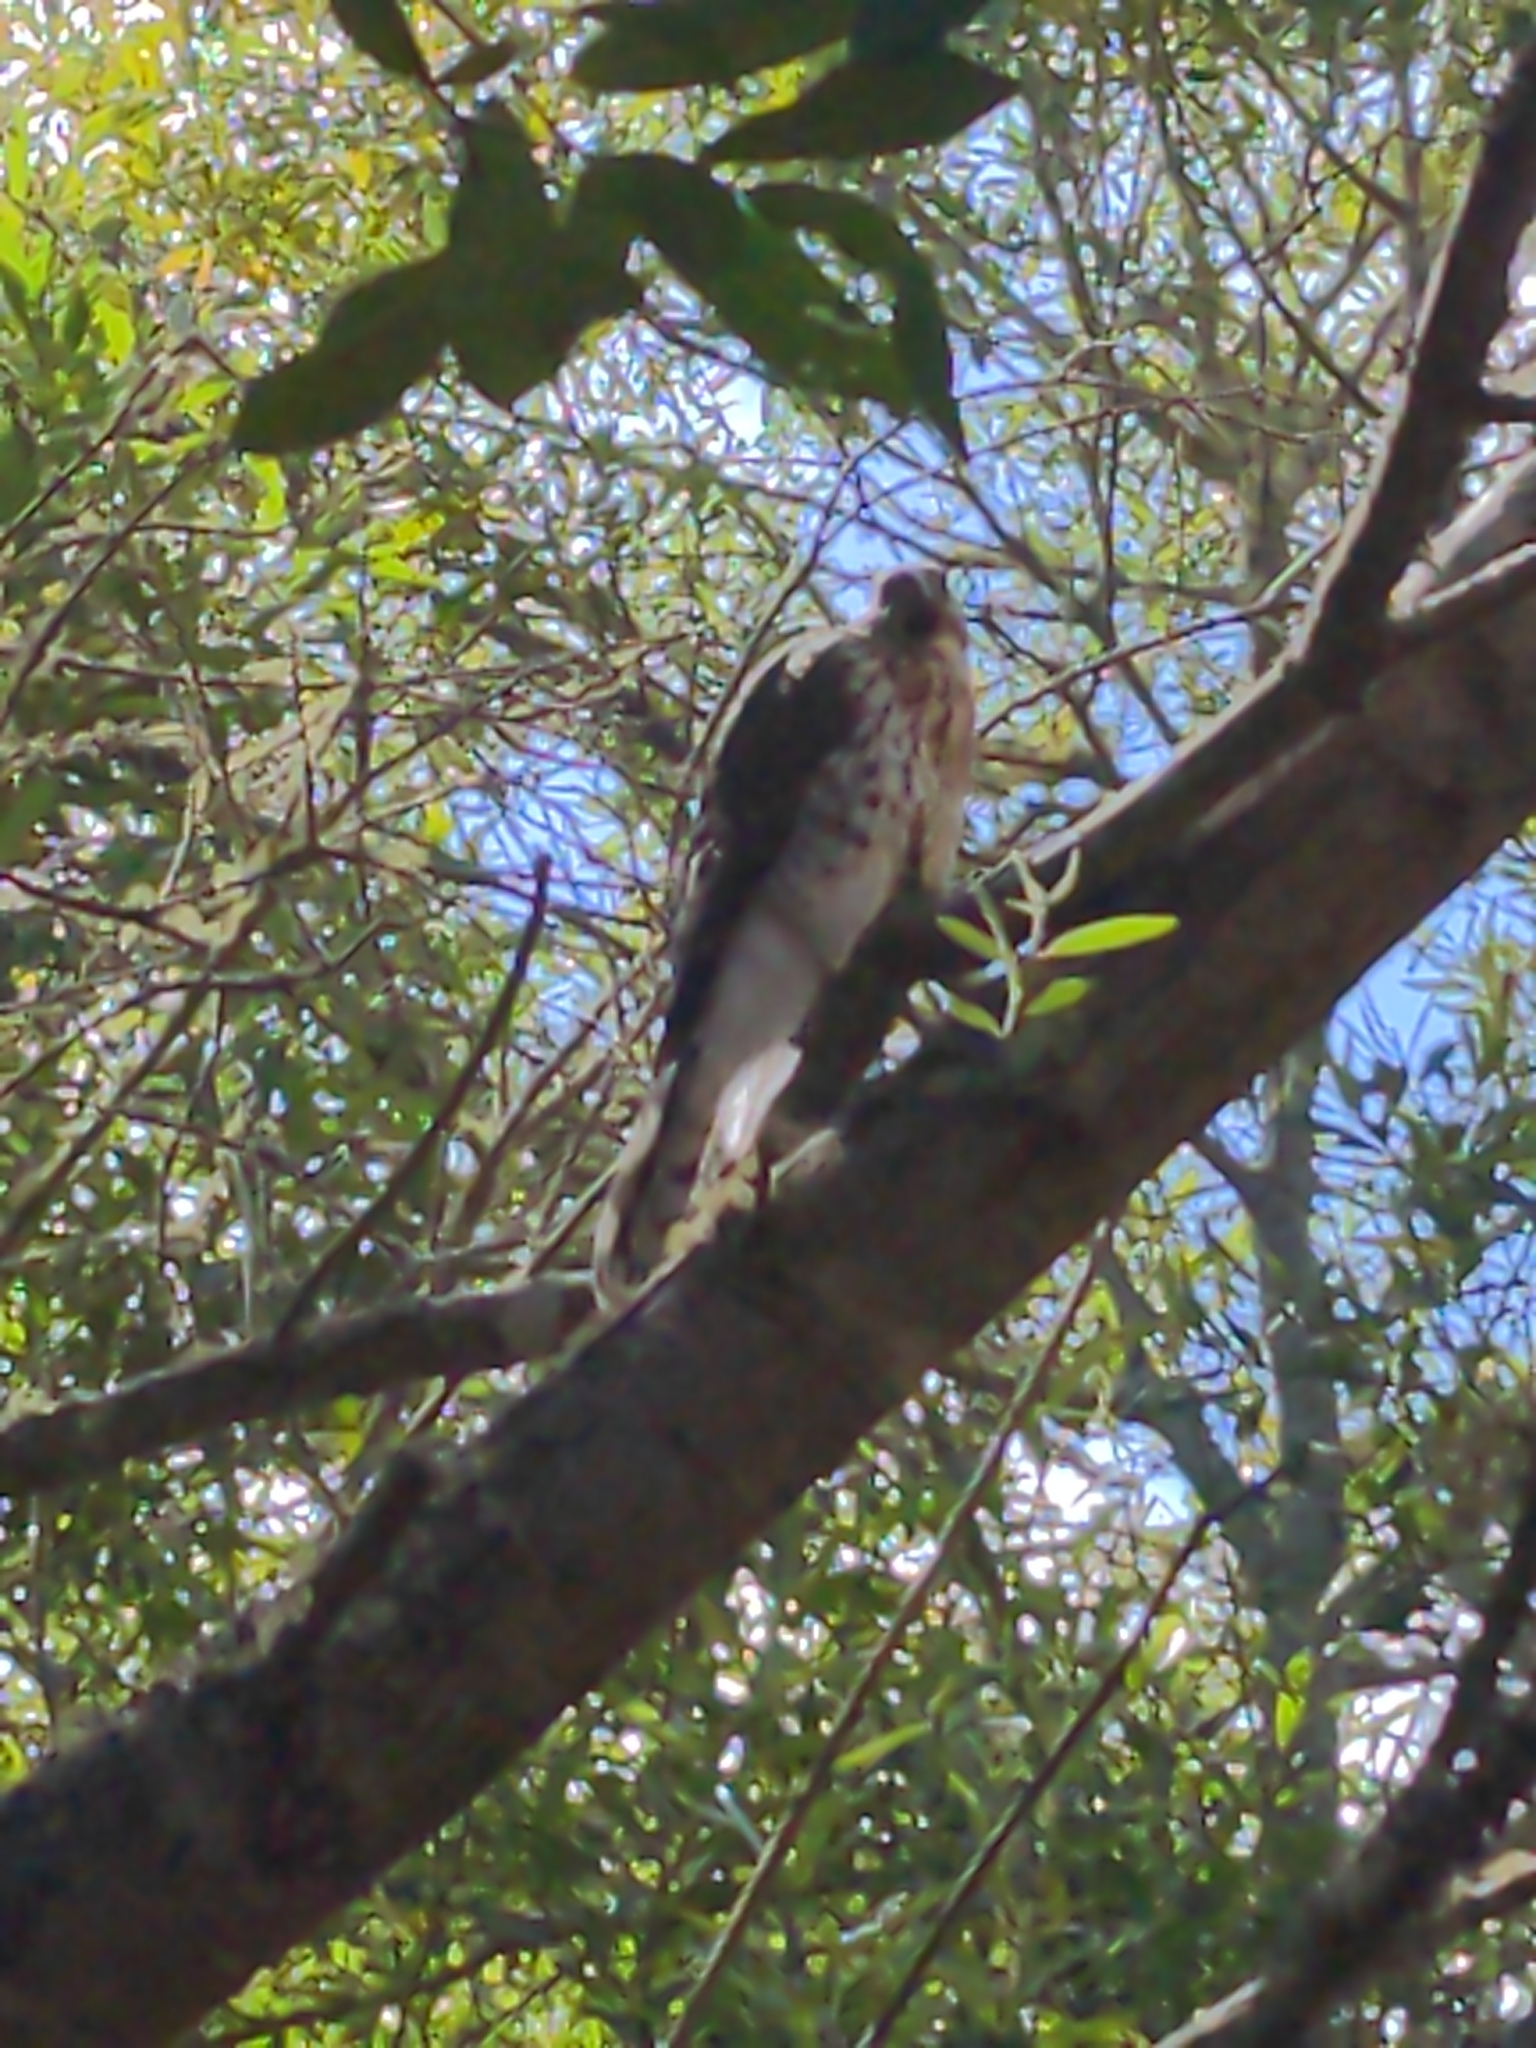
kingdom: Animalia
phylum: Chordata
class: Aves
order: Accipitriformes
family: Accipitridae
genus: Accipiter
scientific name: Accipiter cooperii
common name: Cooper's hawk
